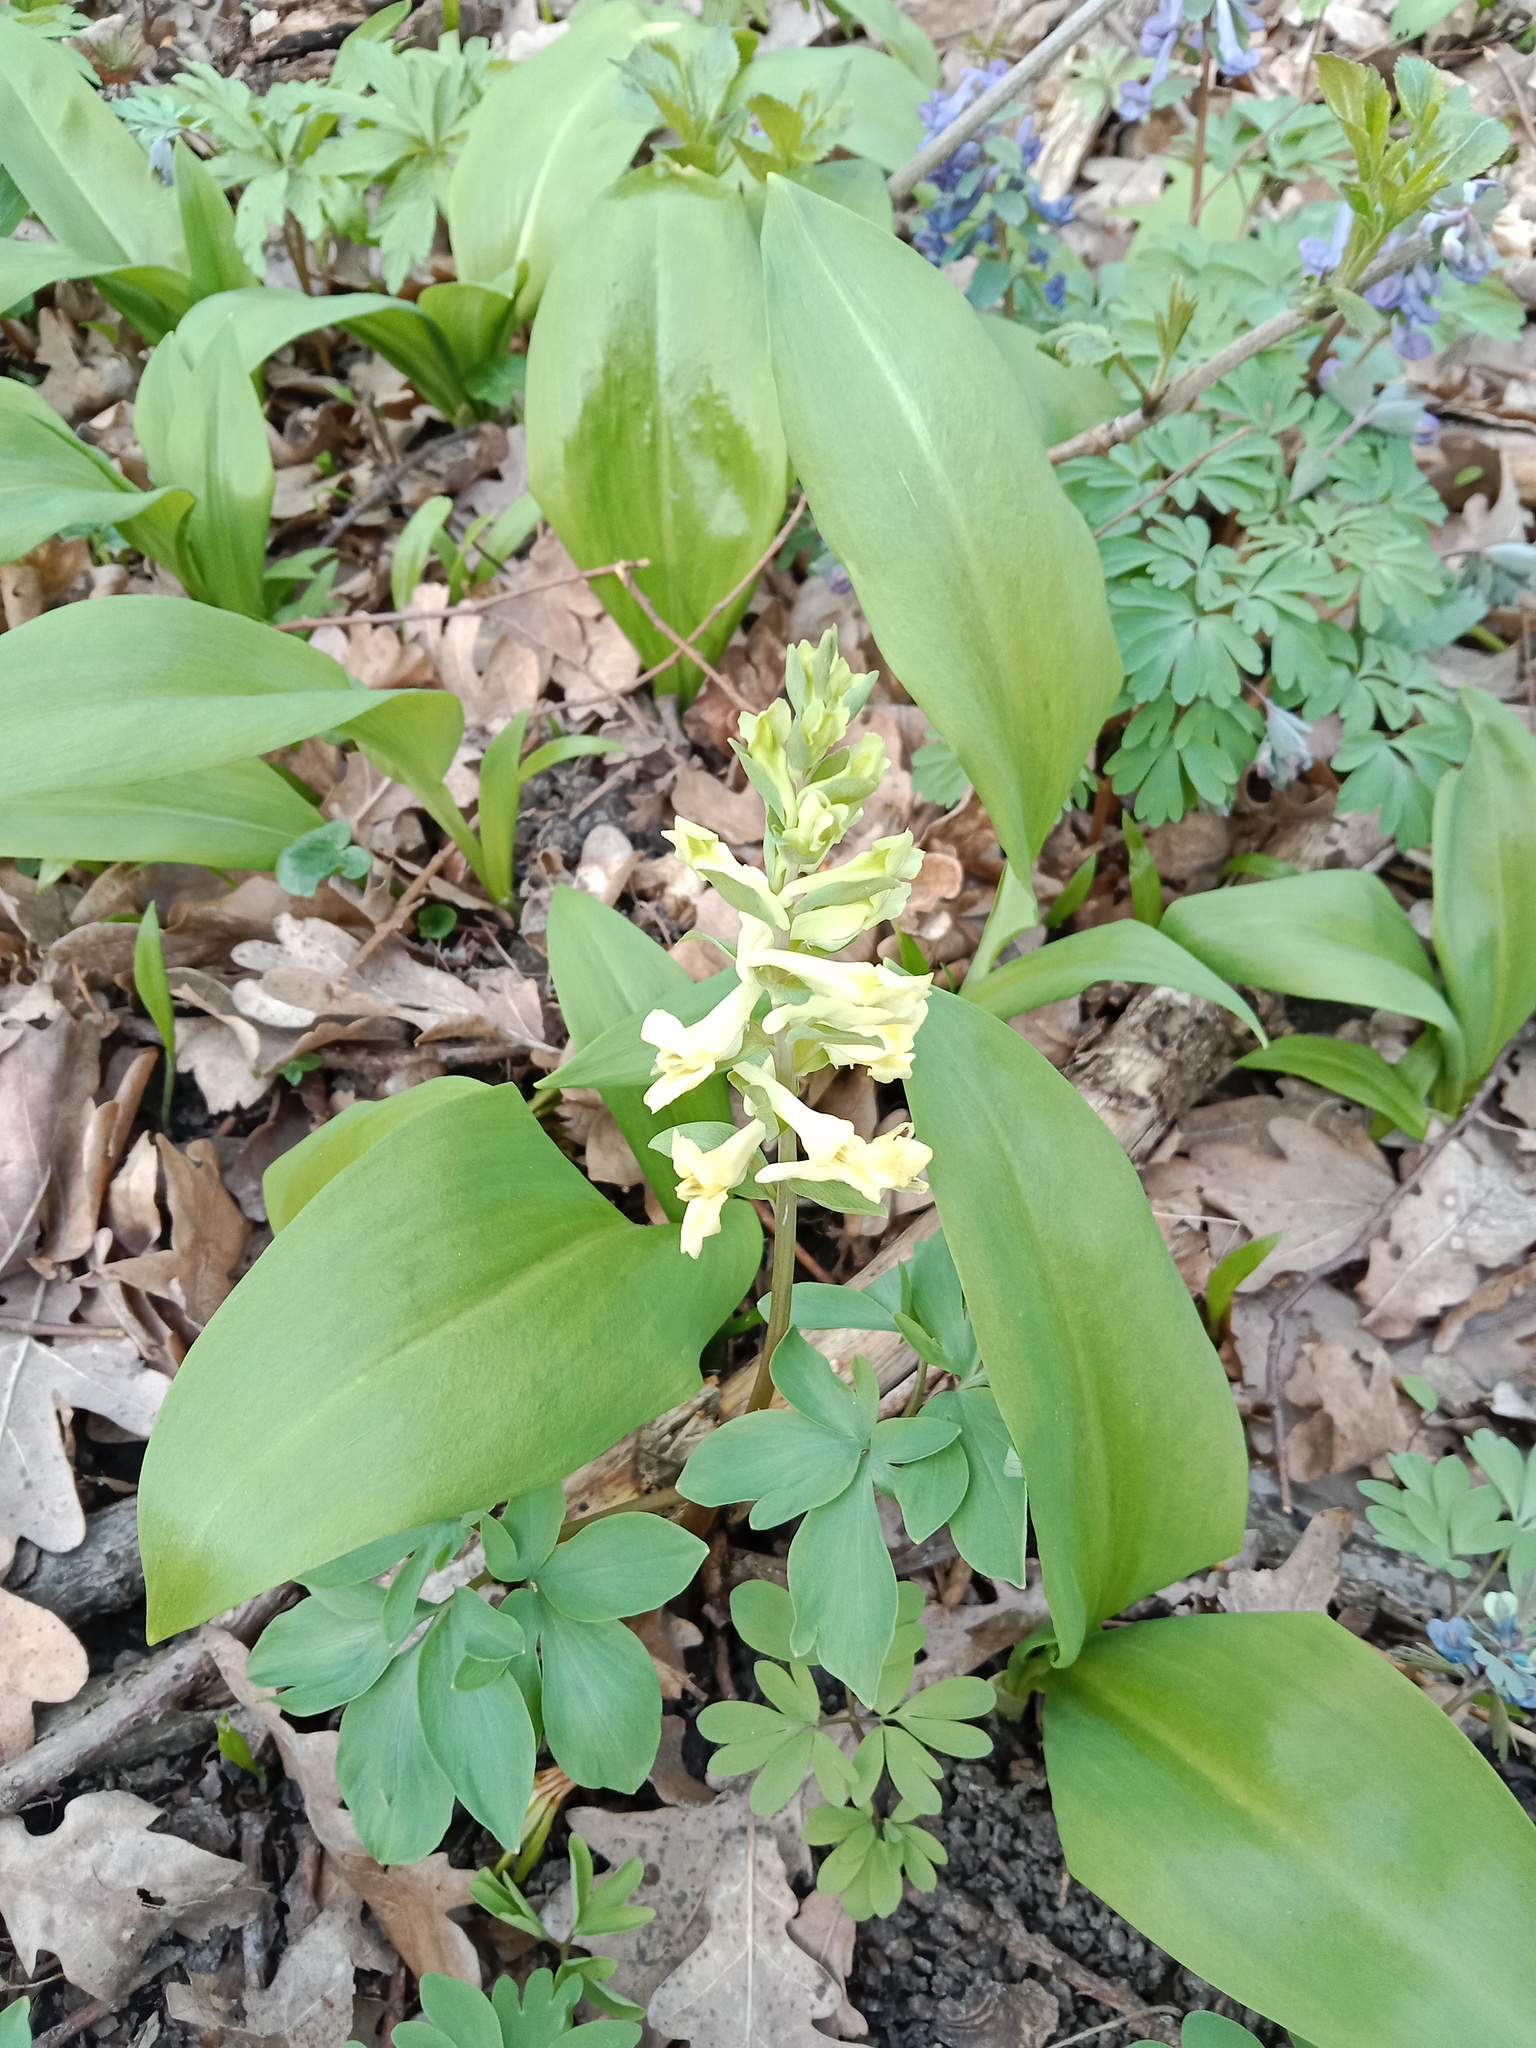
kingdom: Plantae
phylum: Tracheophyta
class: Liliopsida
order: Asparagales
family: Amaryllidaceae
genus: Allium
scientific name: Allium ursinum
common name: Ramsons
